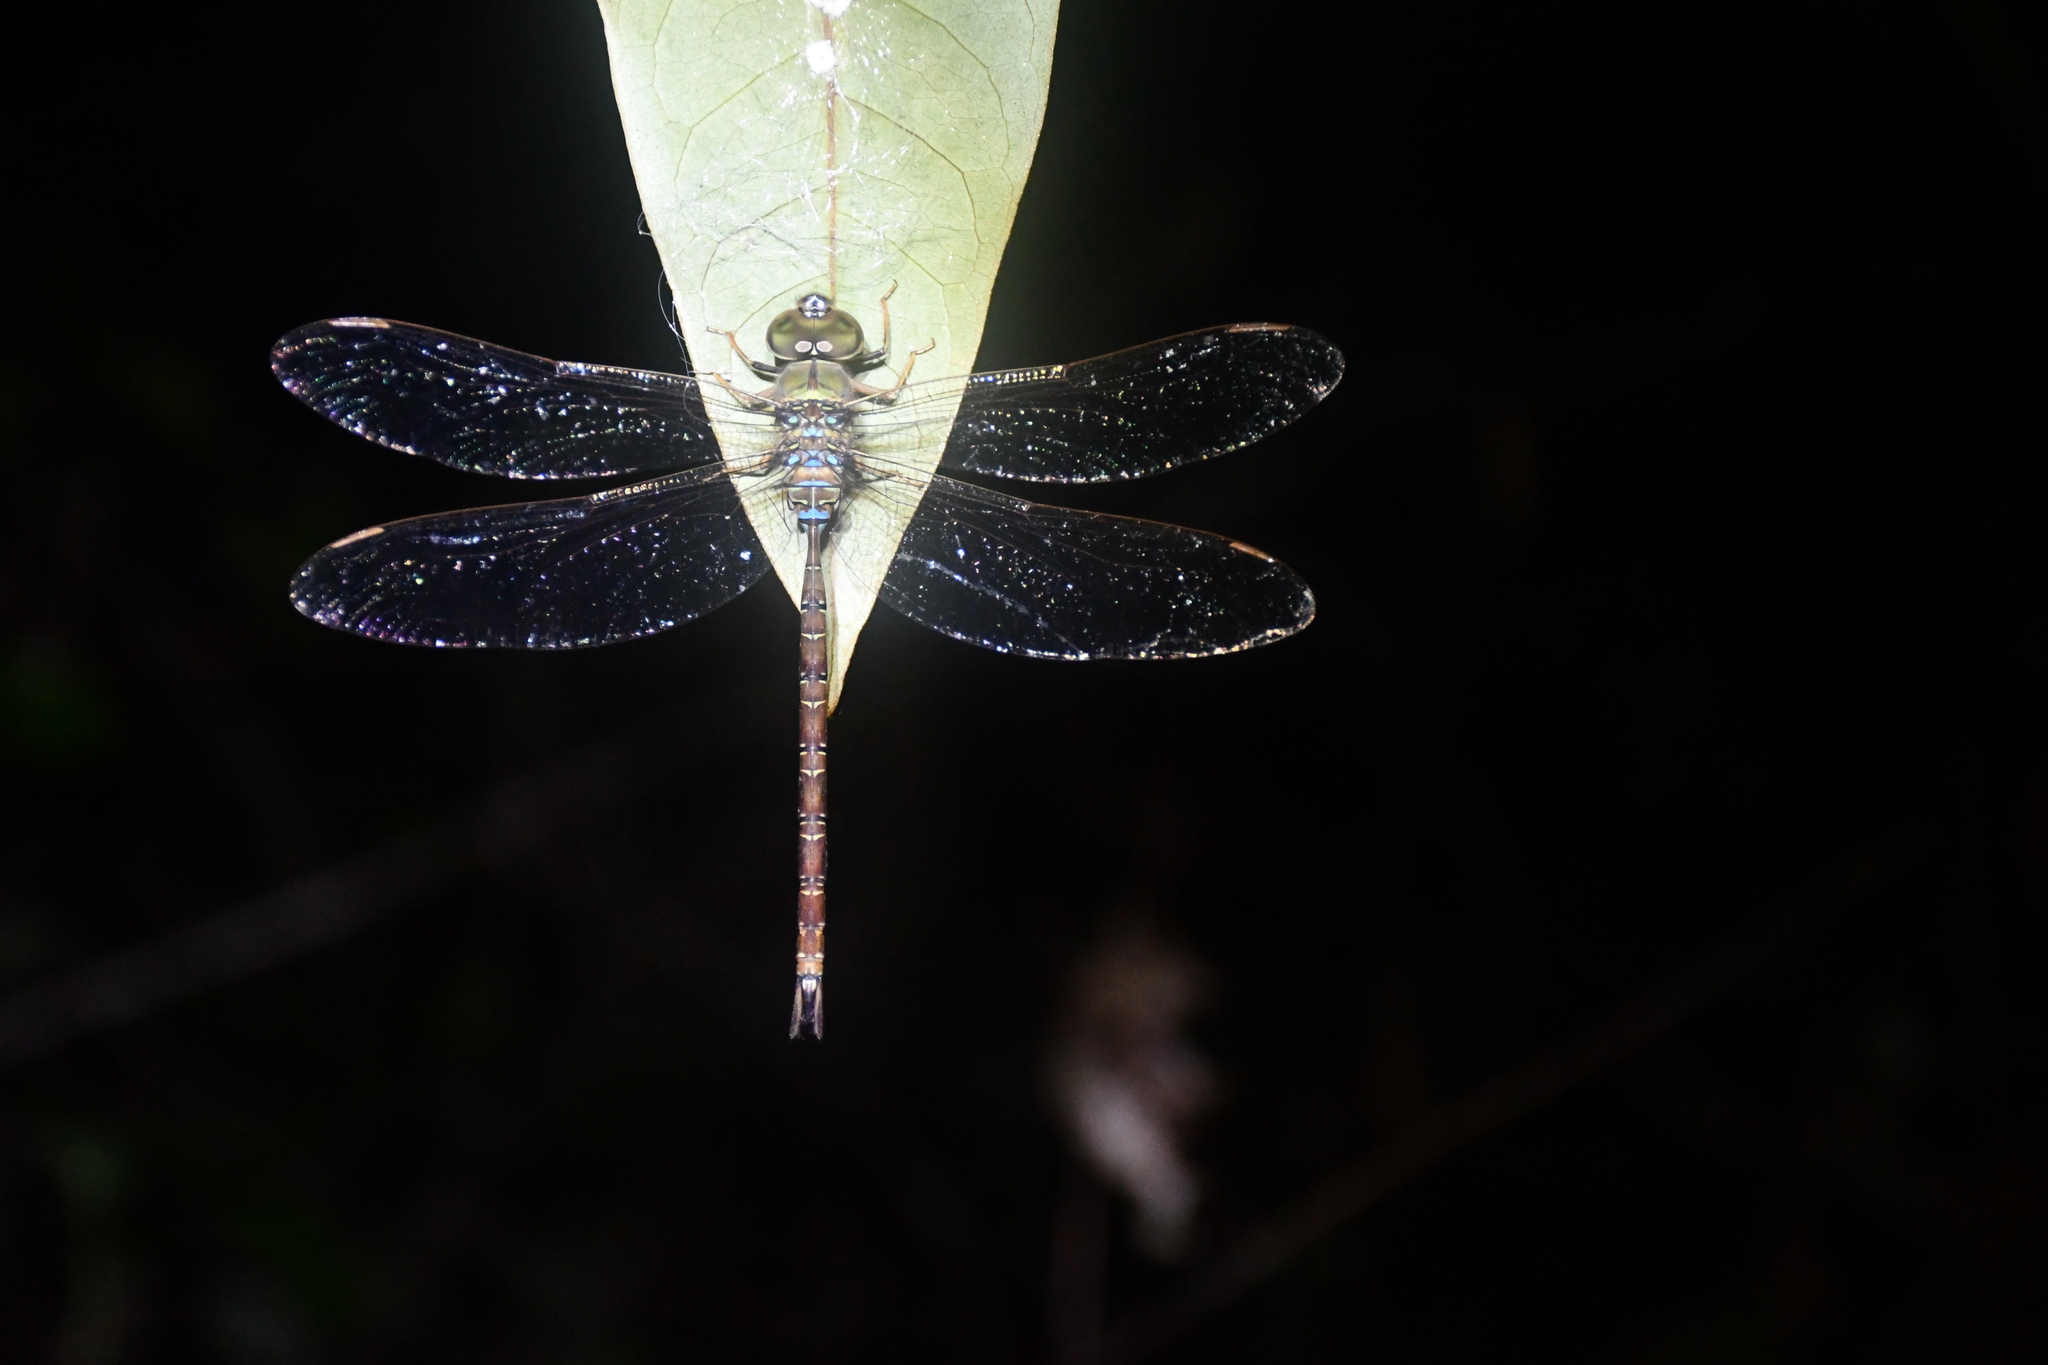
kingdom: Animalia
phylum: Arthropoda
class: Insecta
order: Odonata
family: Aeshnidae
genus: Gynacantha
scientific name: Gynacantha bifida
